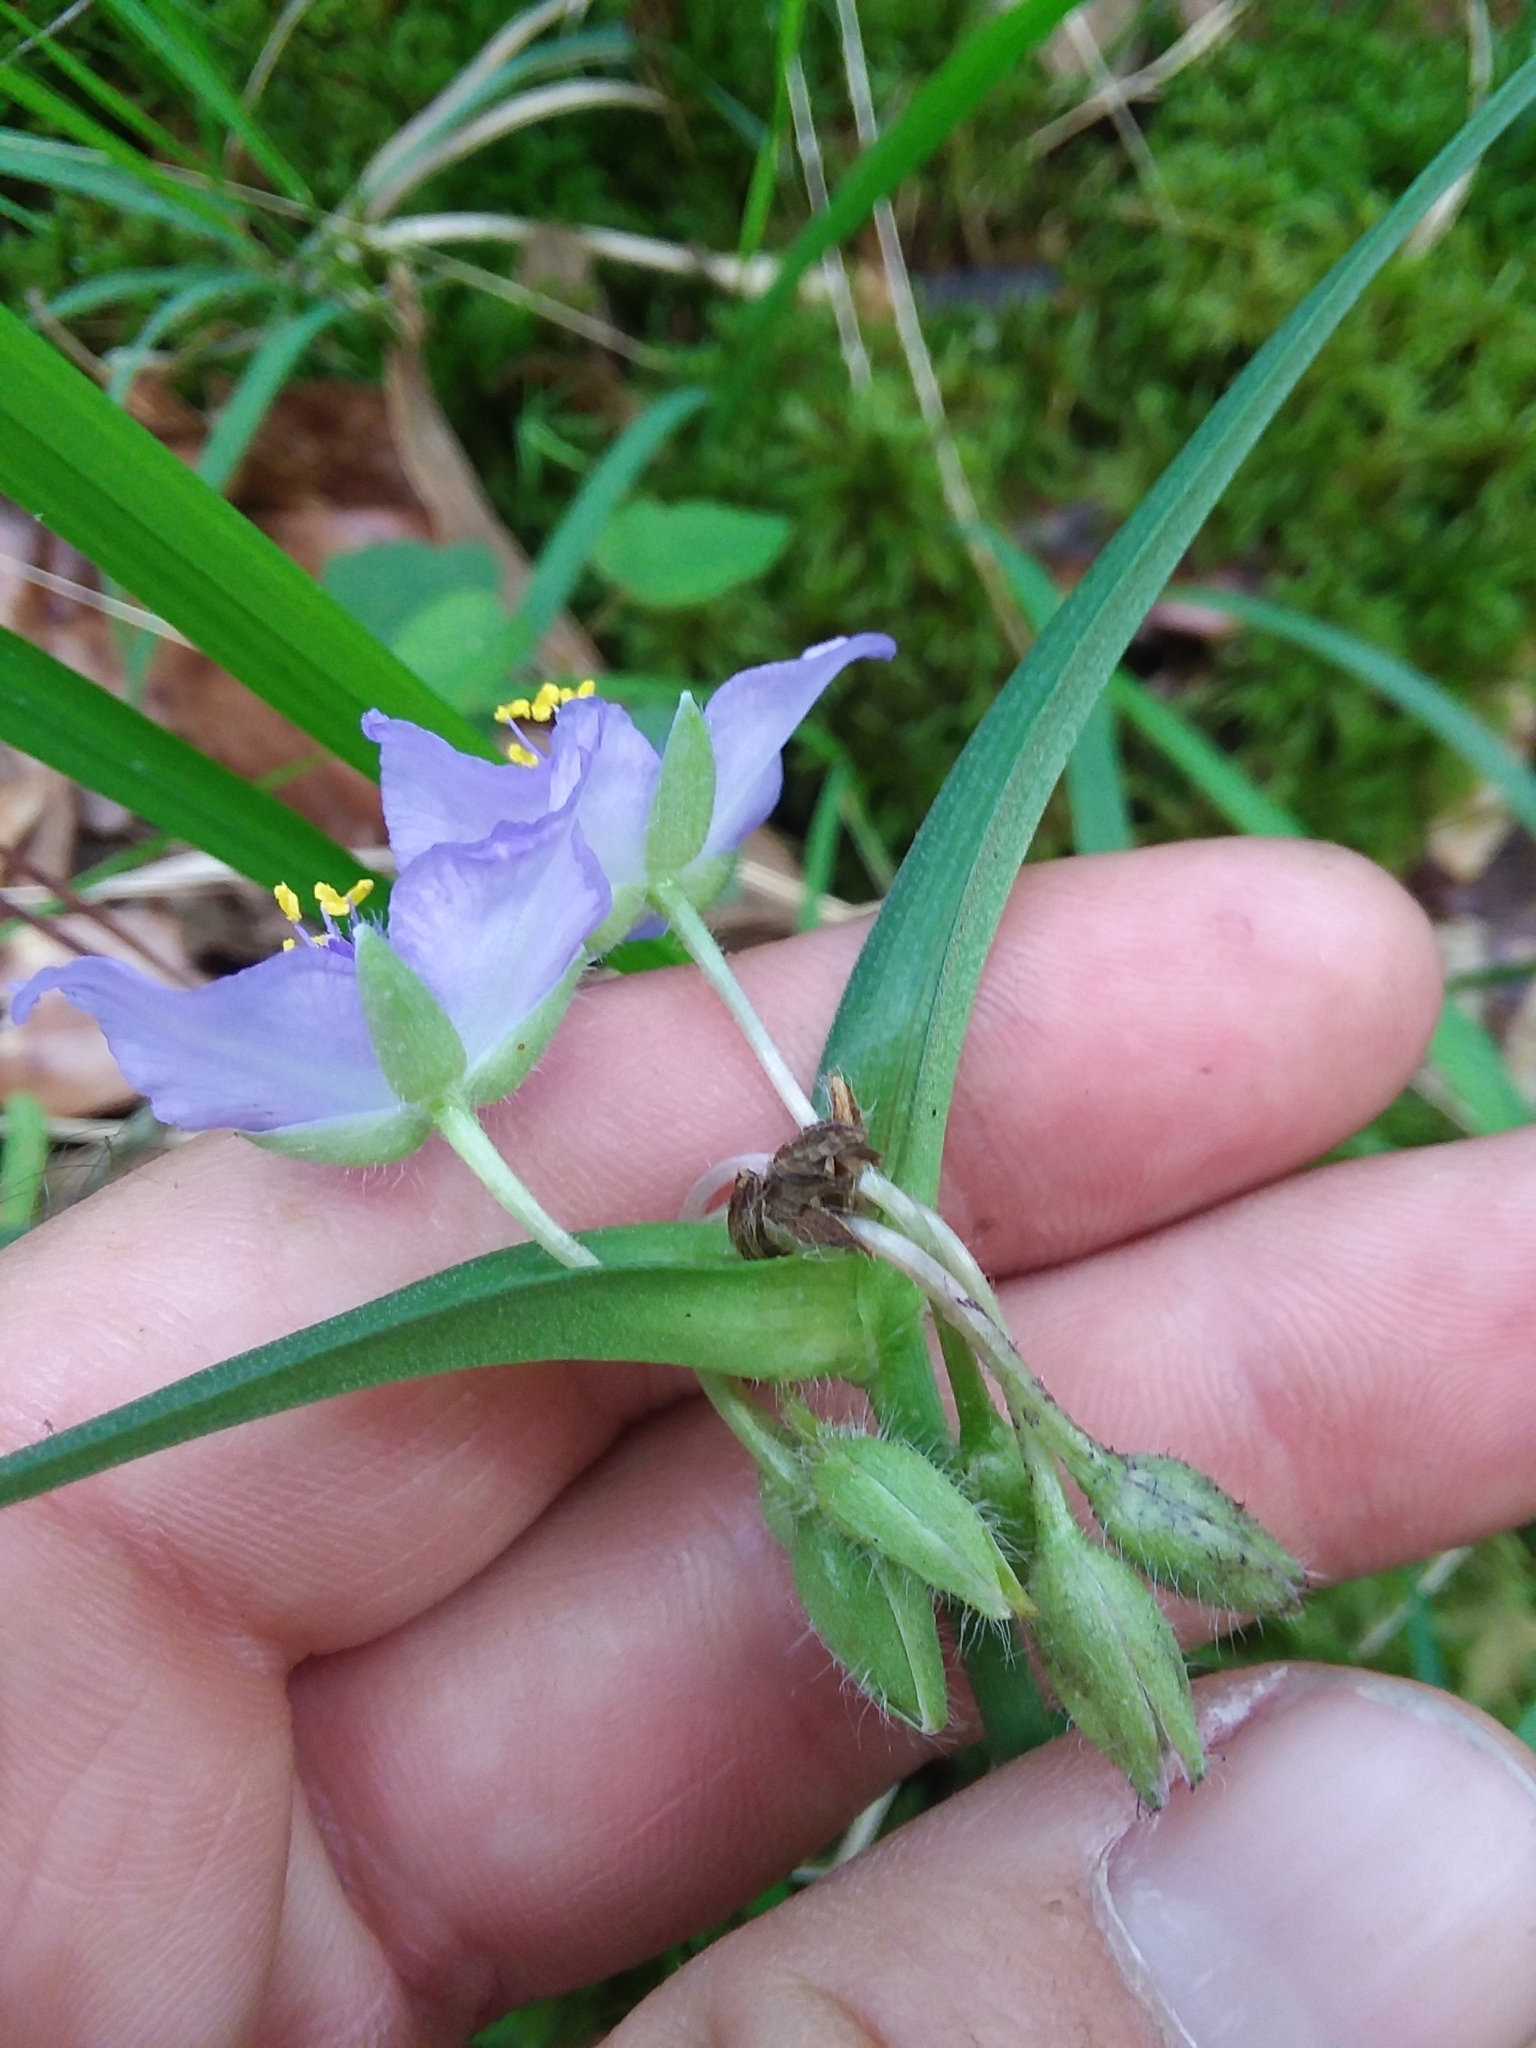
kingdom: Plantae
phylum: Tracheophyta
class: Liliopsida
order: Commelinales
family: Commelinaceae
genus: Tradescantia
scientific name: Tradescantia hirsutiflora
